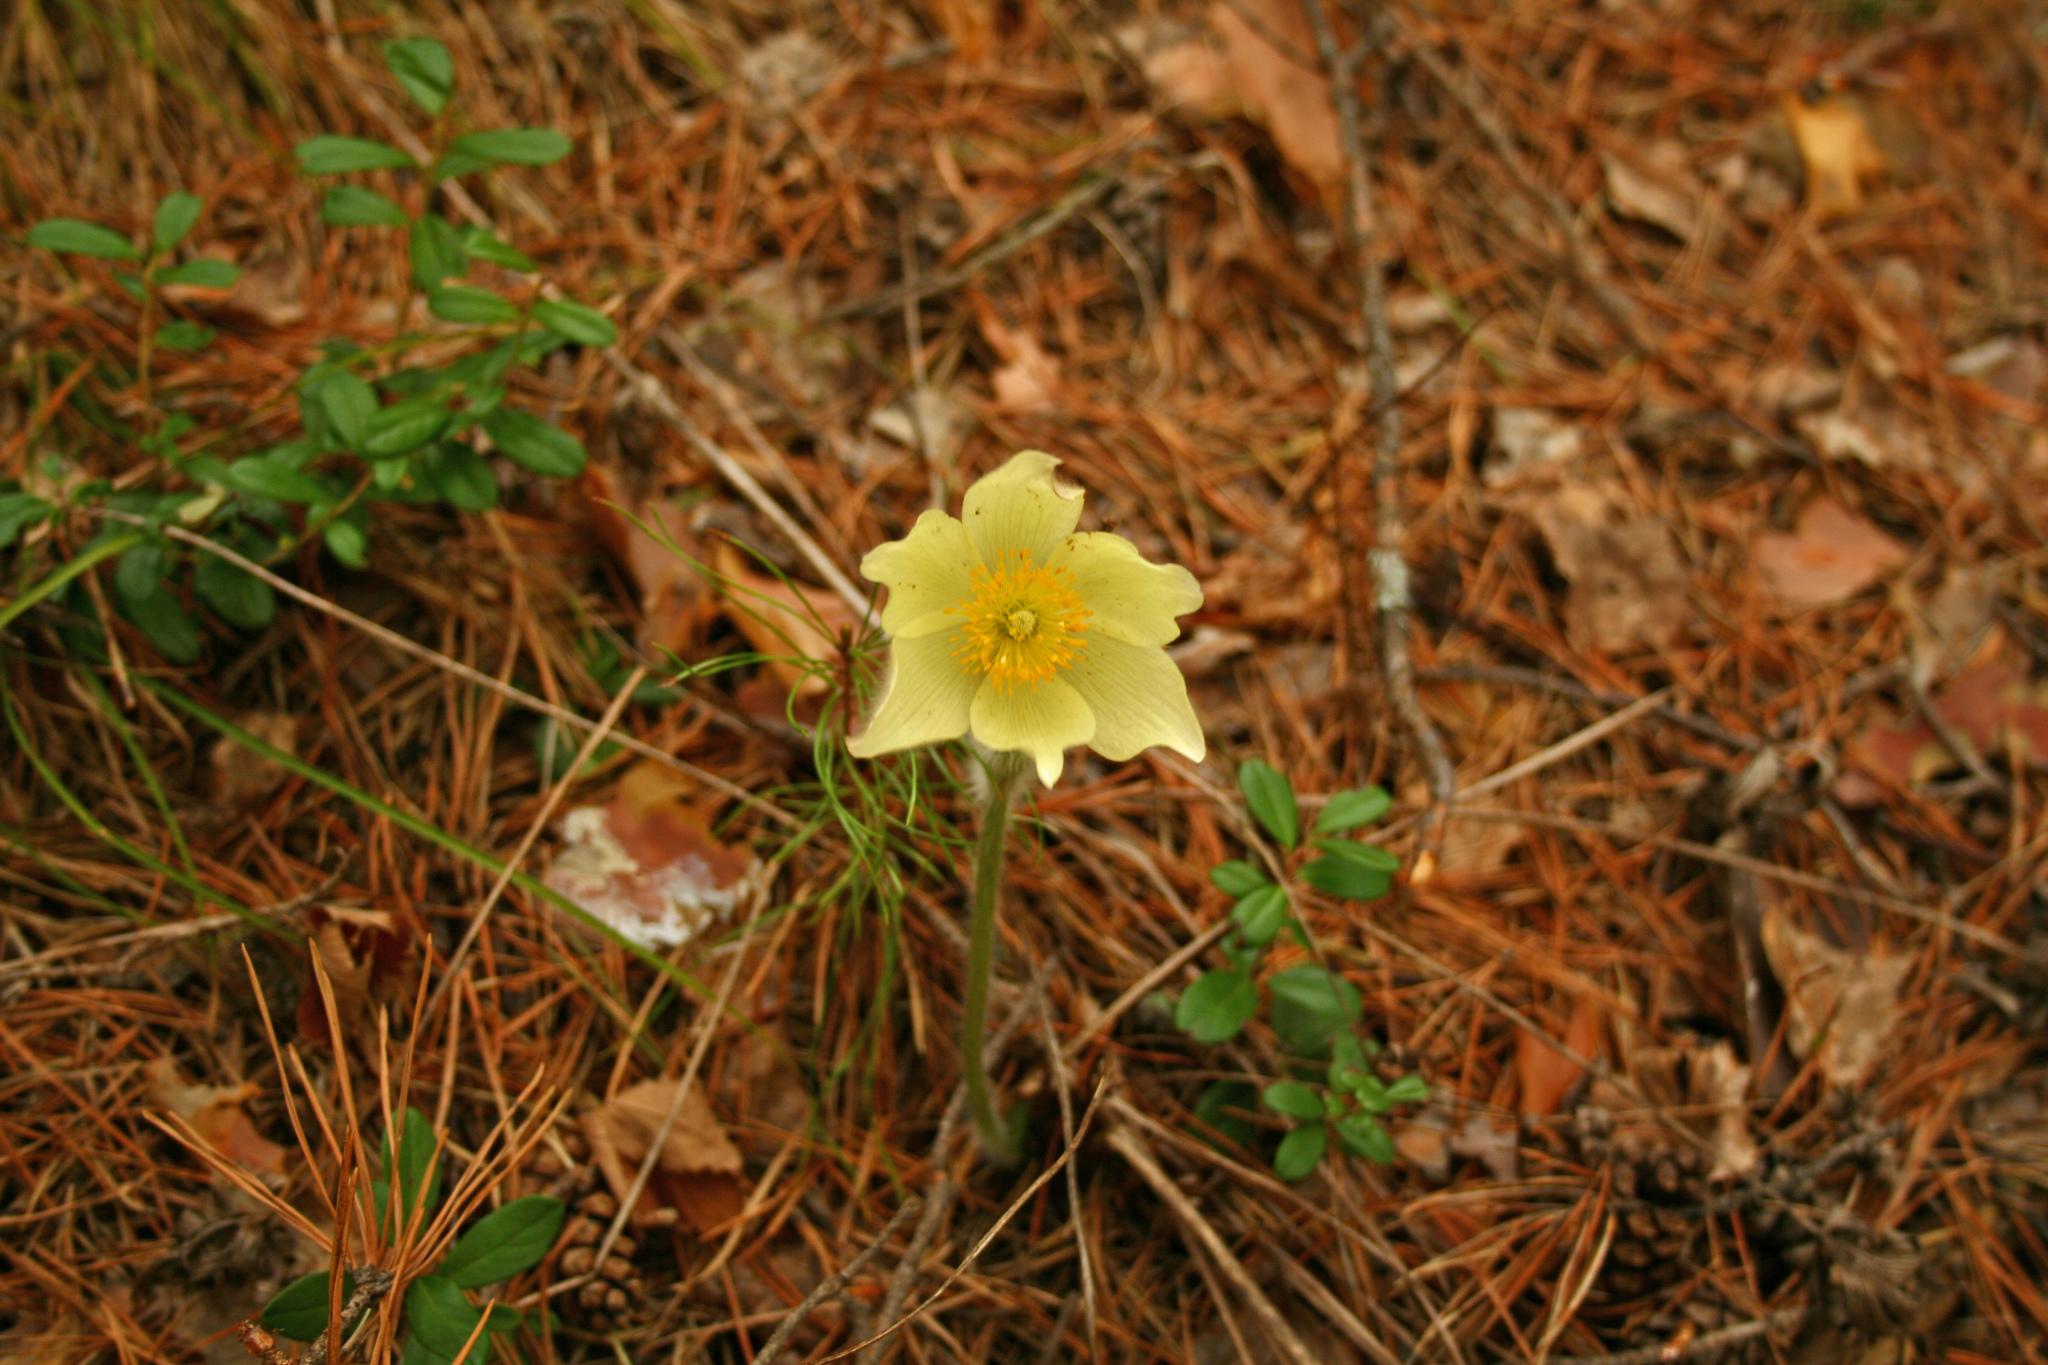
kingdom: Plantae
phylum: Tracheophyta
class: Magnoliopsida
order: Ranunculales
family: Ranunculaceae
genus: Pulsatilla
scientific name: Pulsatilla patens
